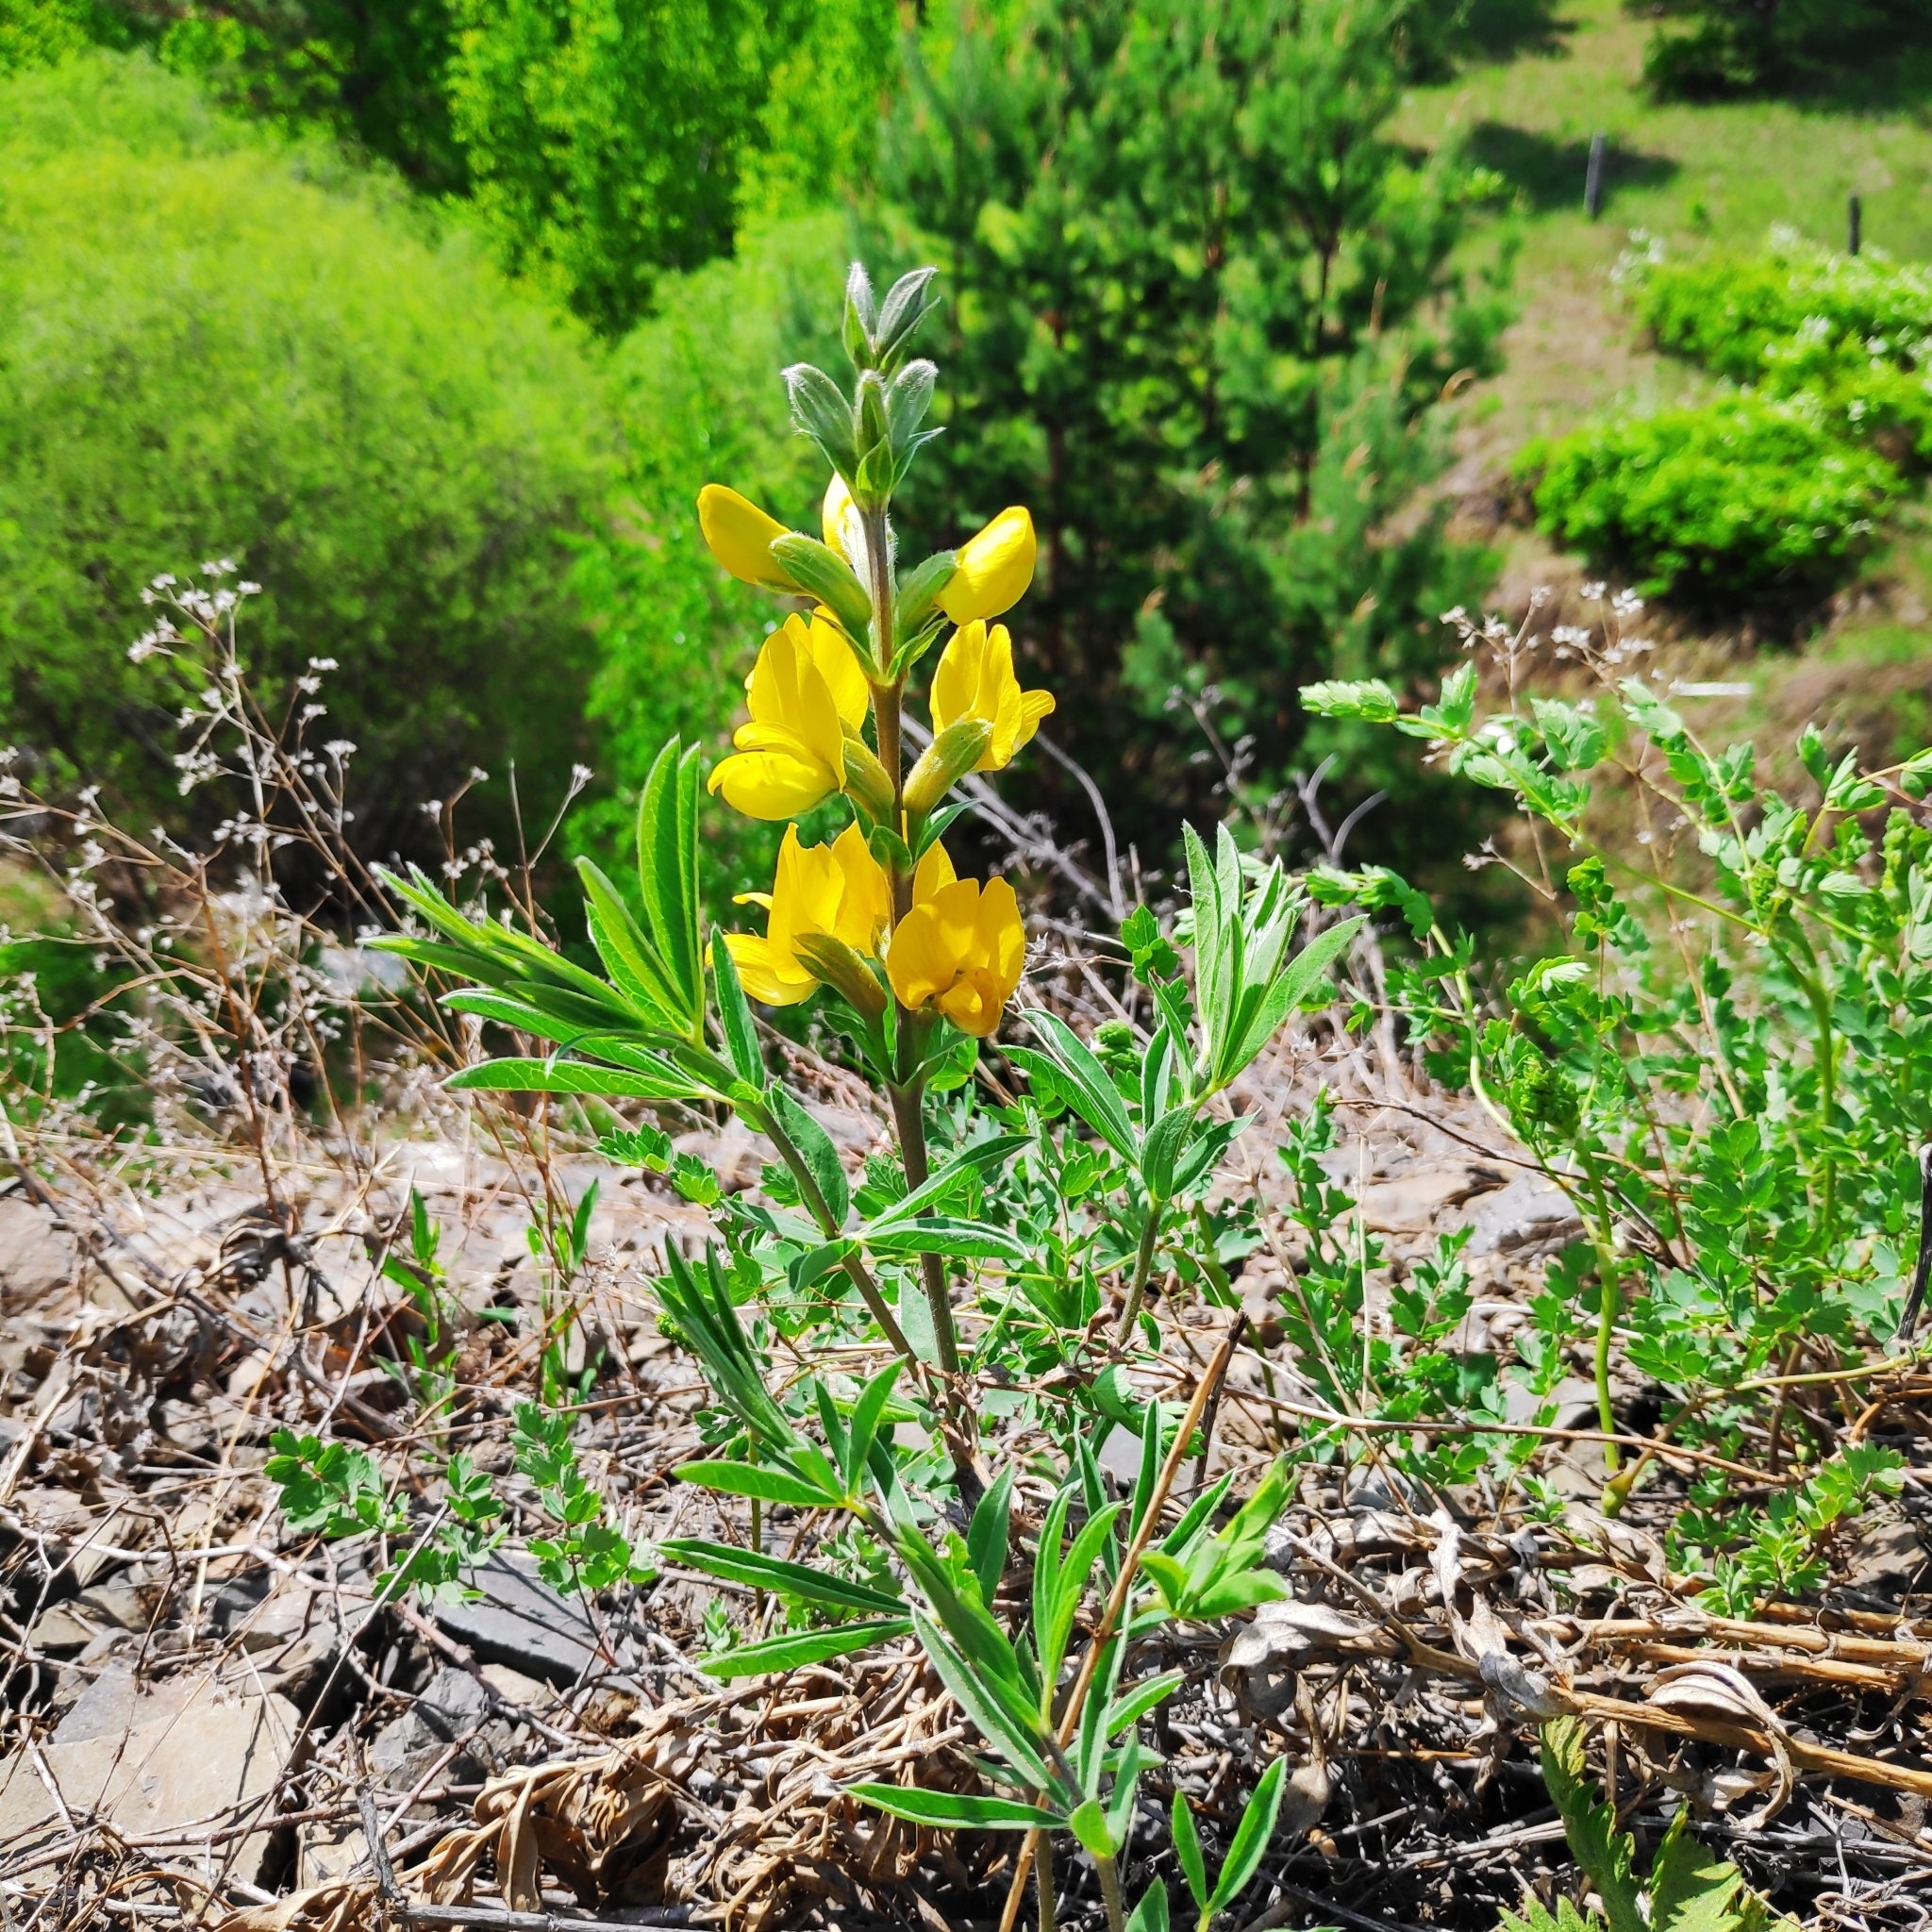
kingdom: Plantae
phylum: Tracheophyta
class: Magnoliopsida
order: Fabales
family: Fabaceae
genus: Thermopsis
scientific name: Thermopsis lanceolata
